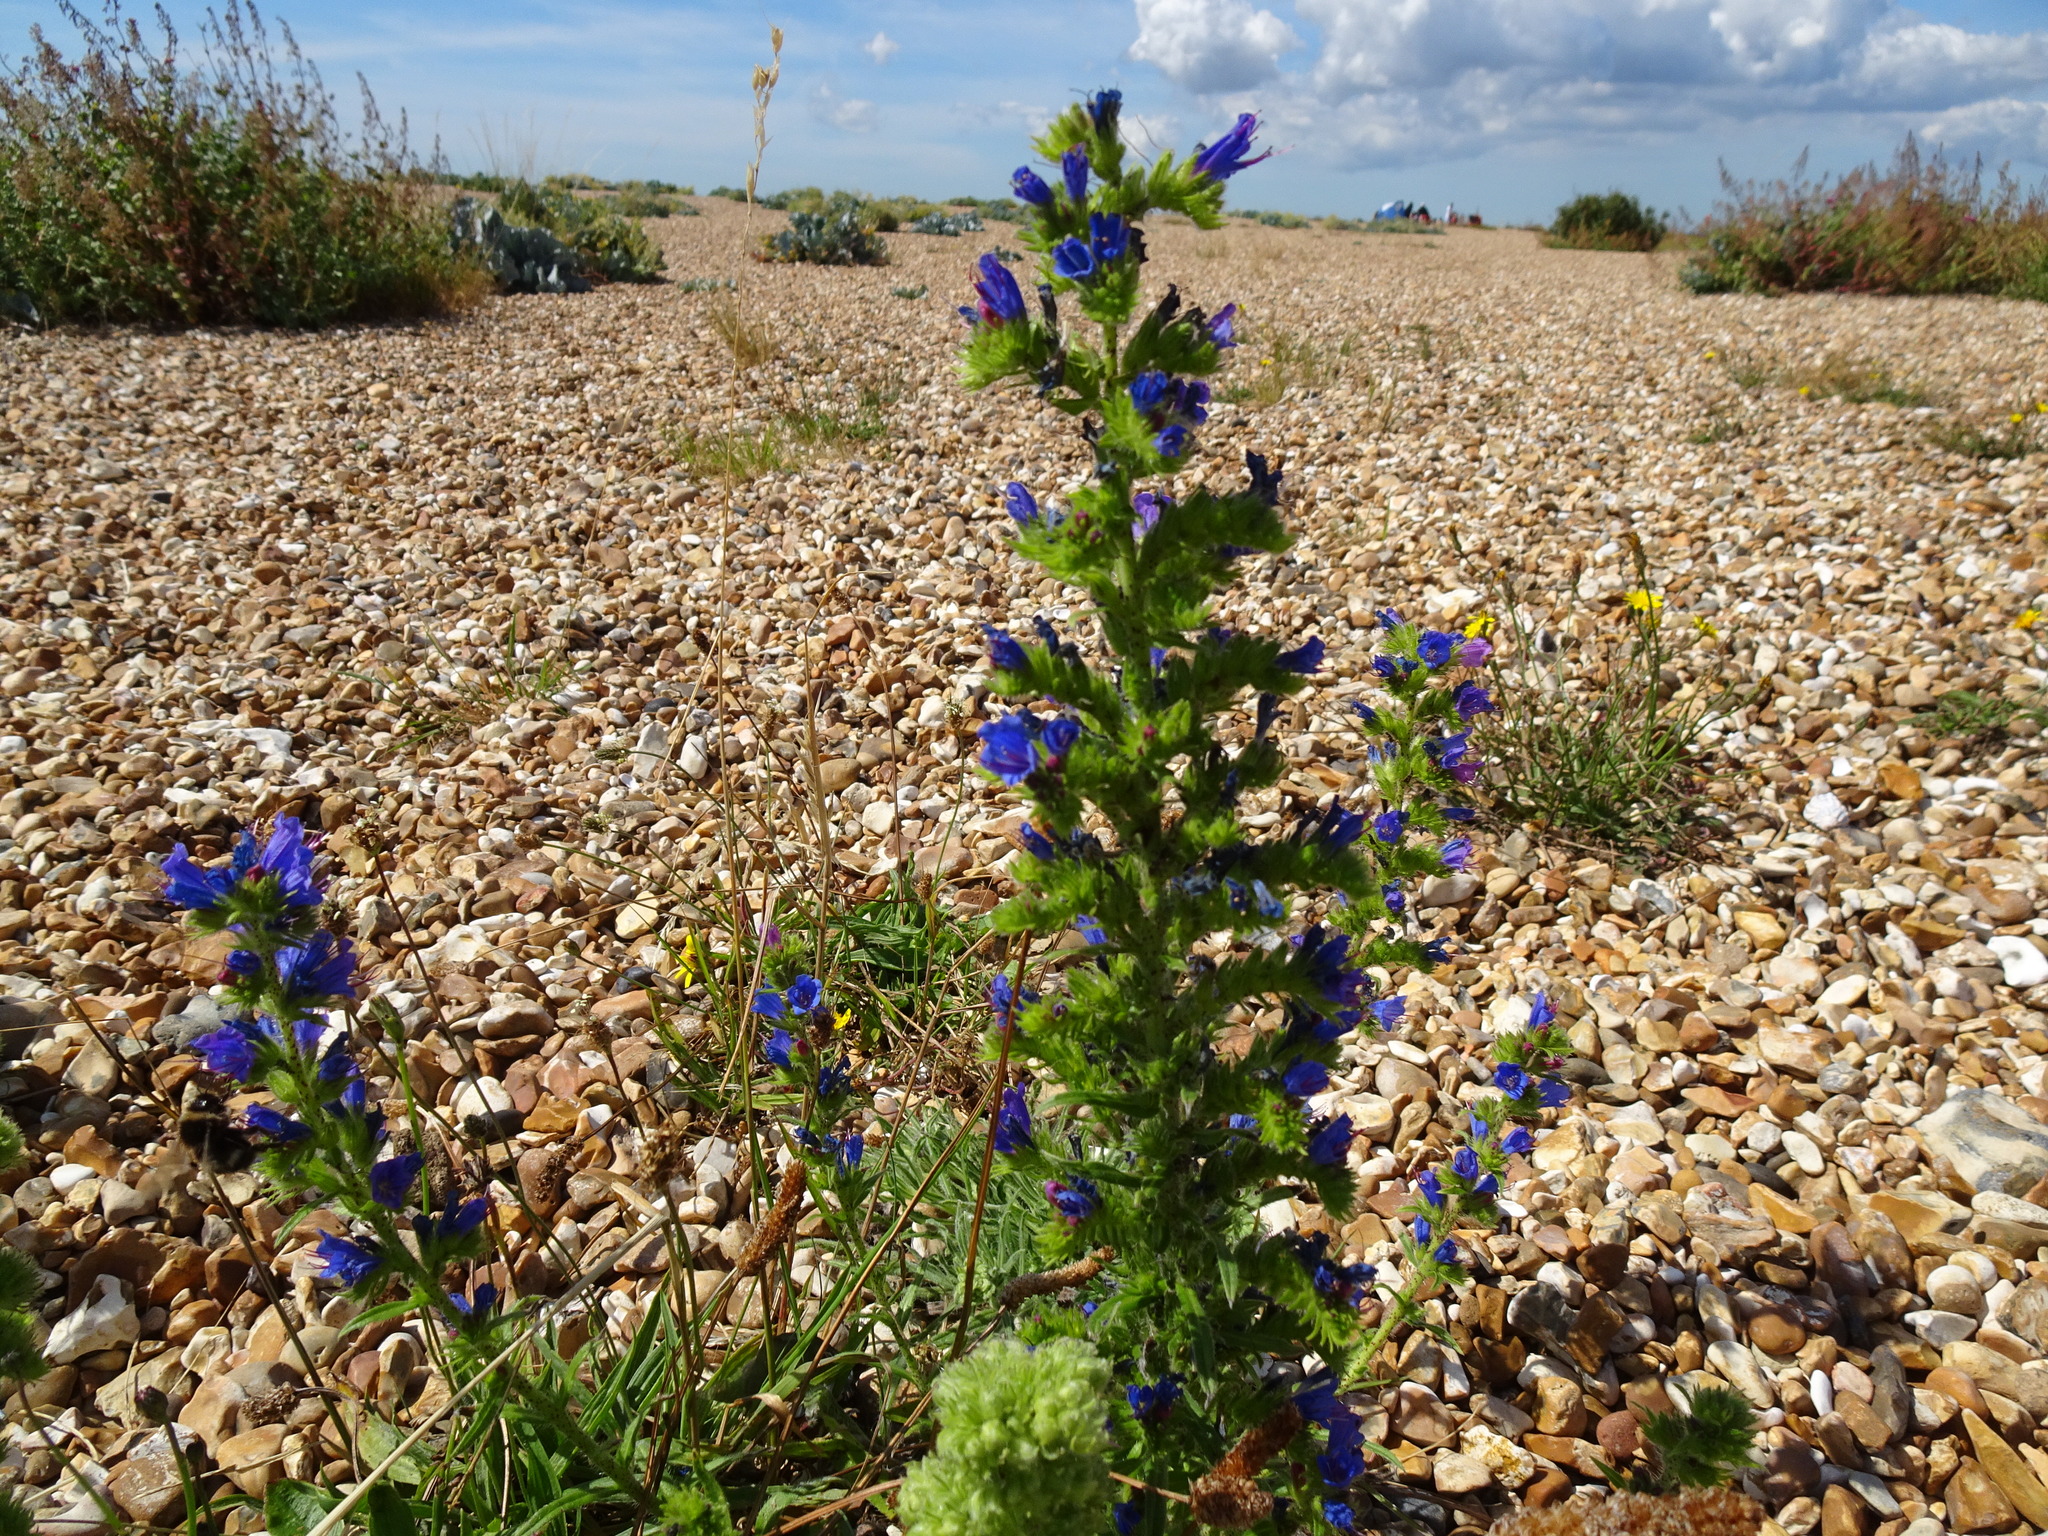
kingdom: Plantae
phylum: Tracheophyta
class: Magnoliopsida
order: Boraginales
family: Boraginaceae
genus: Echium
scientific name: Echium vulgare
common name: Common viper's bugloss
